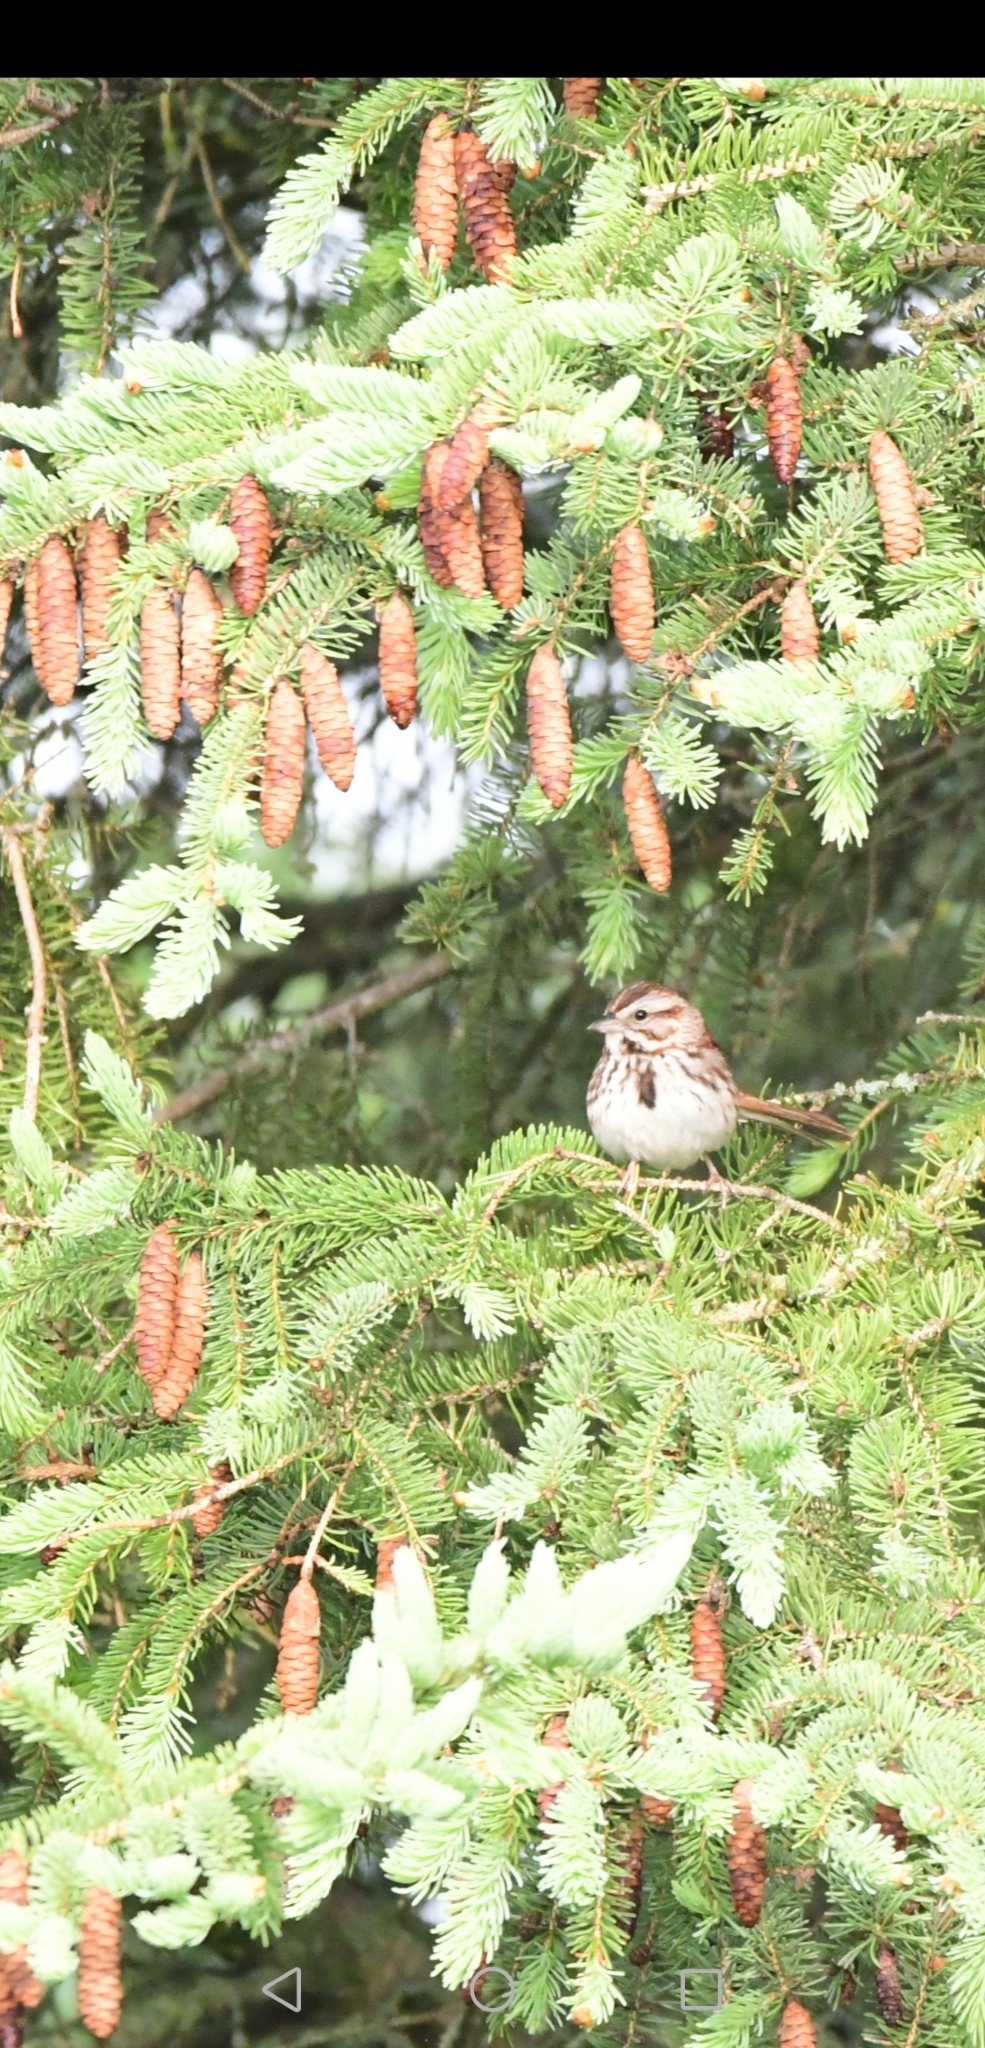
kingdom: Animalia
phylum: Chordata
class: Aves
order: Passeriformes
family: Passerellidae
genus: Melospiza
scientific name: Melospiza melodia
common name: Song sparrow
